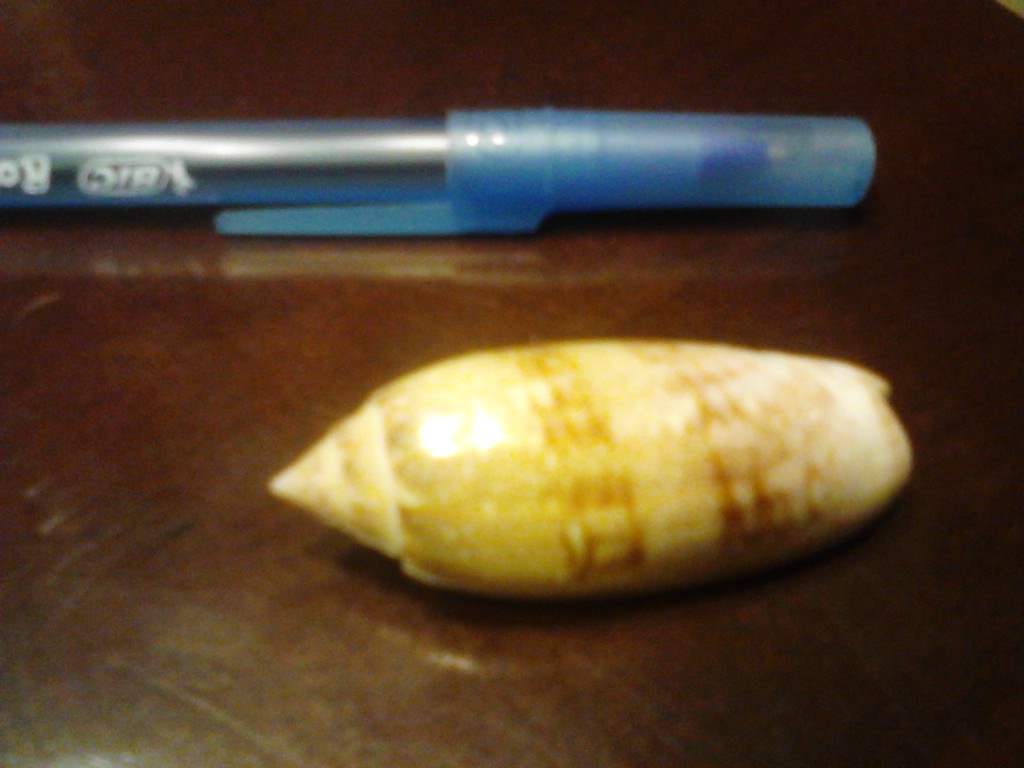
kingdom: Animalia
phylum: Mollusca
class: Gastropoda
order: Neogastropoda
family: Olividae
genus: Oliva
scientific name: Oliva sayana
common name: Lettered olive
